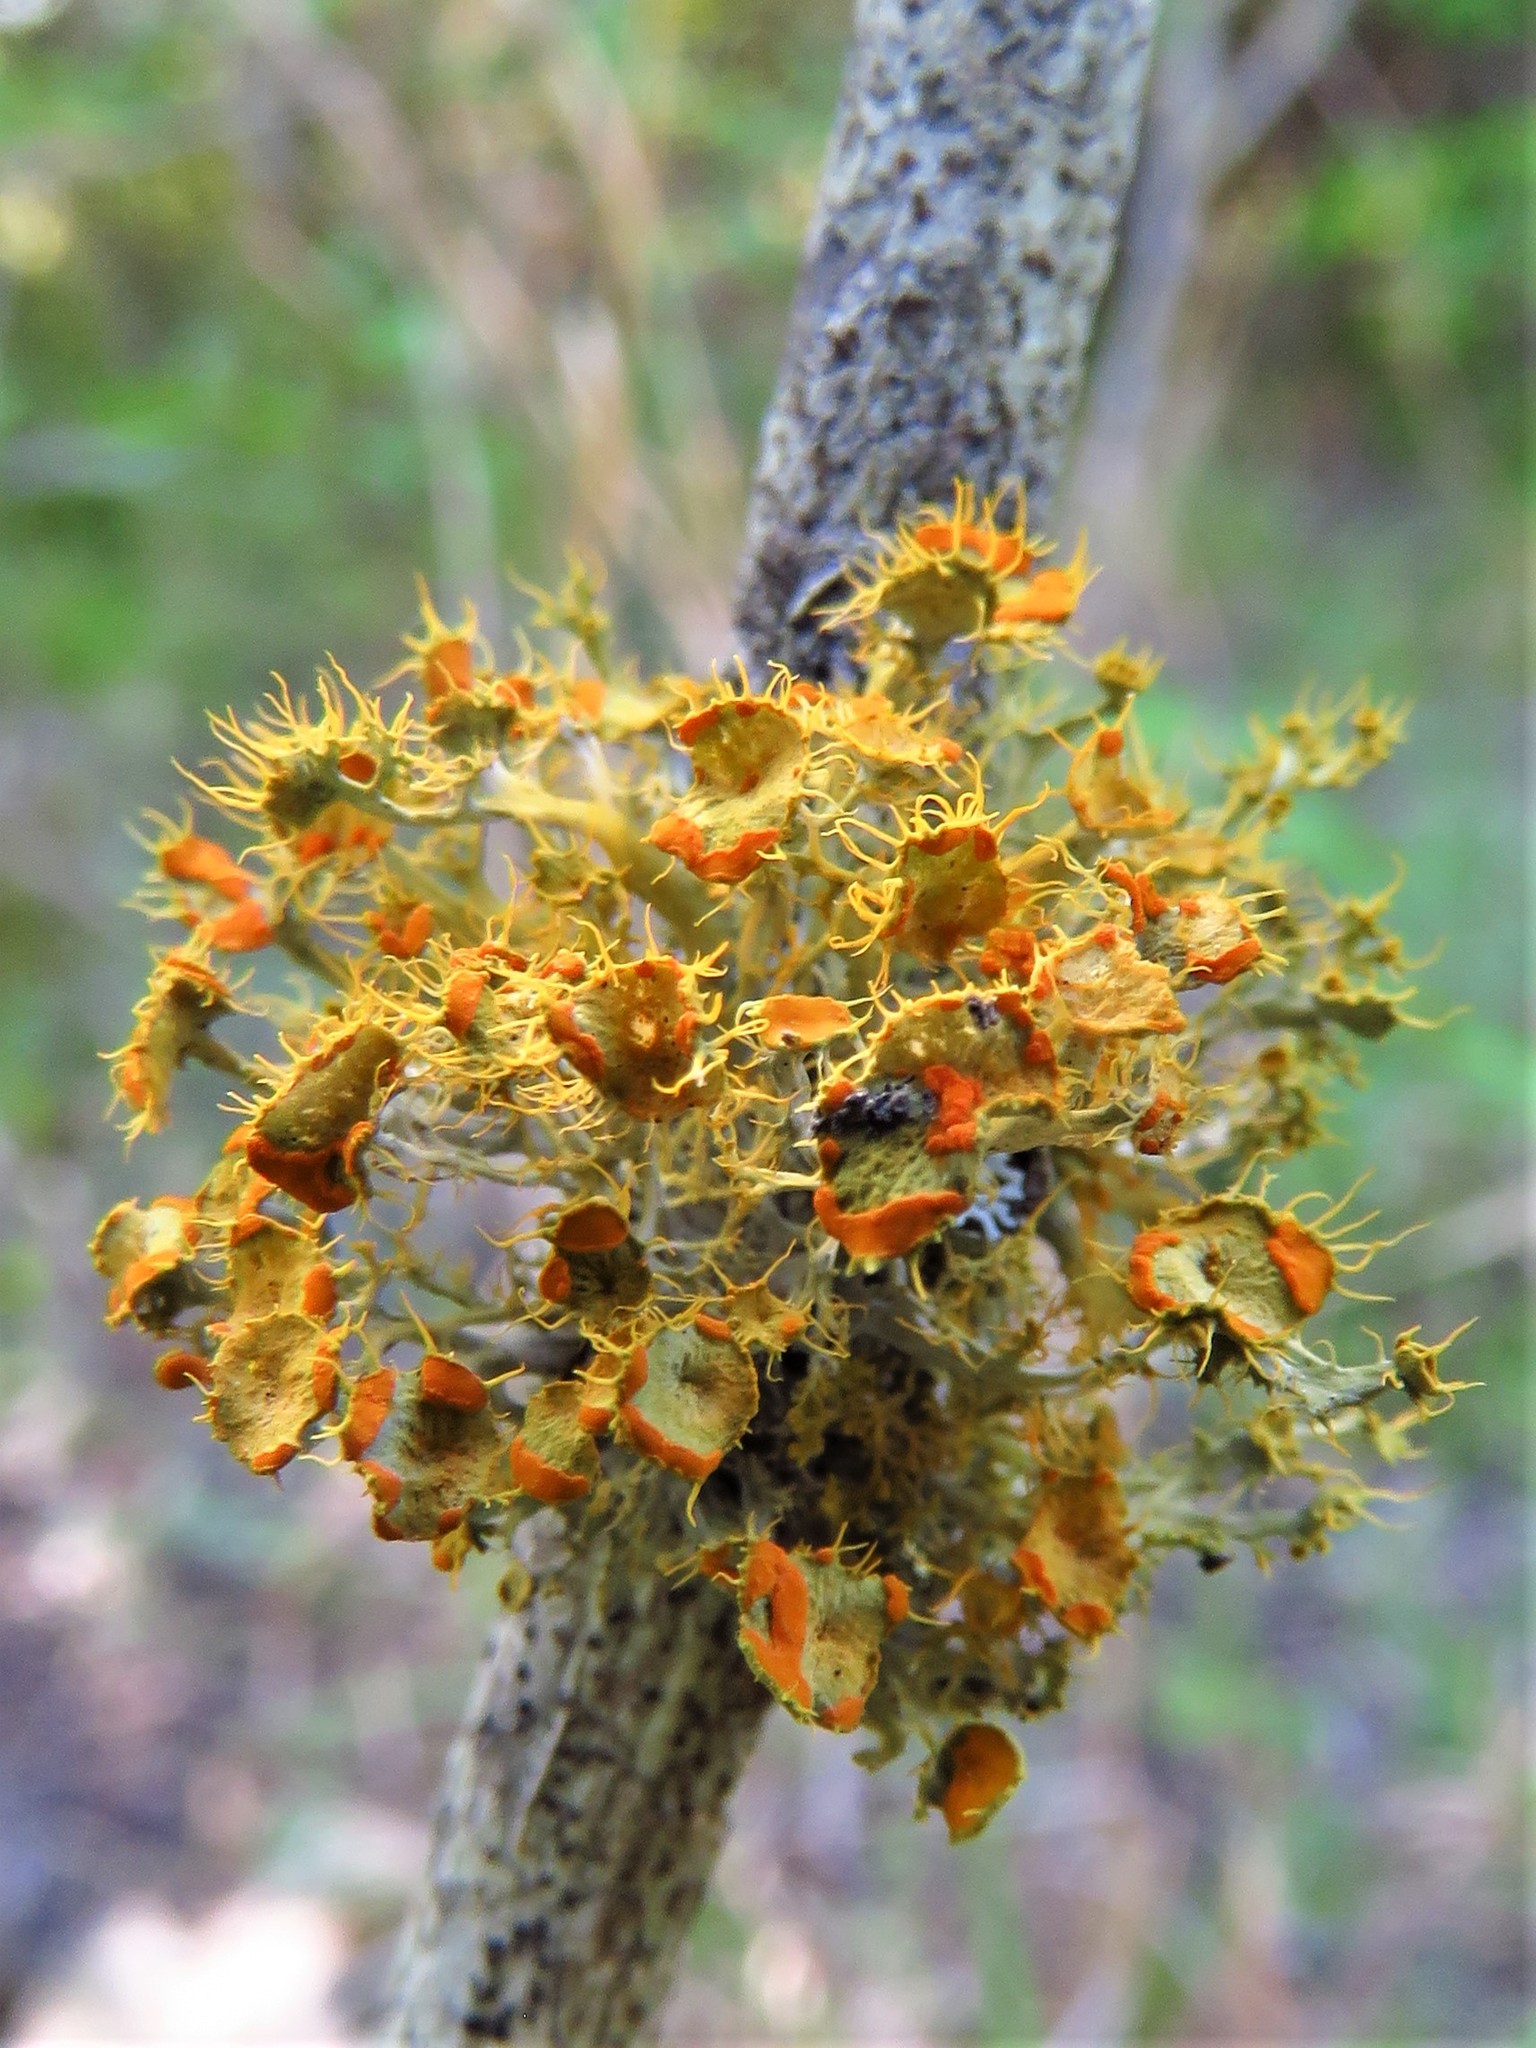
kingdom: Fungi
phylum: Ascomycota
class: Lecanoromycetes
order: Teloschistales
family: Teloschistaceae
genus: Niorma
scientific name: Niorma chrysophthalma
